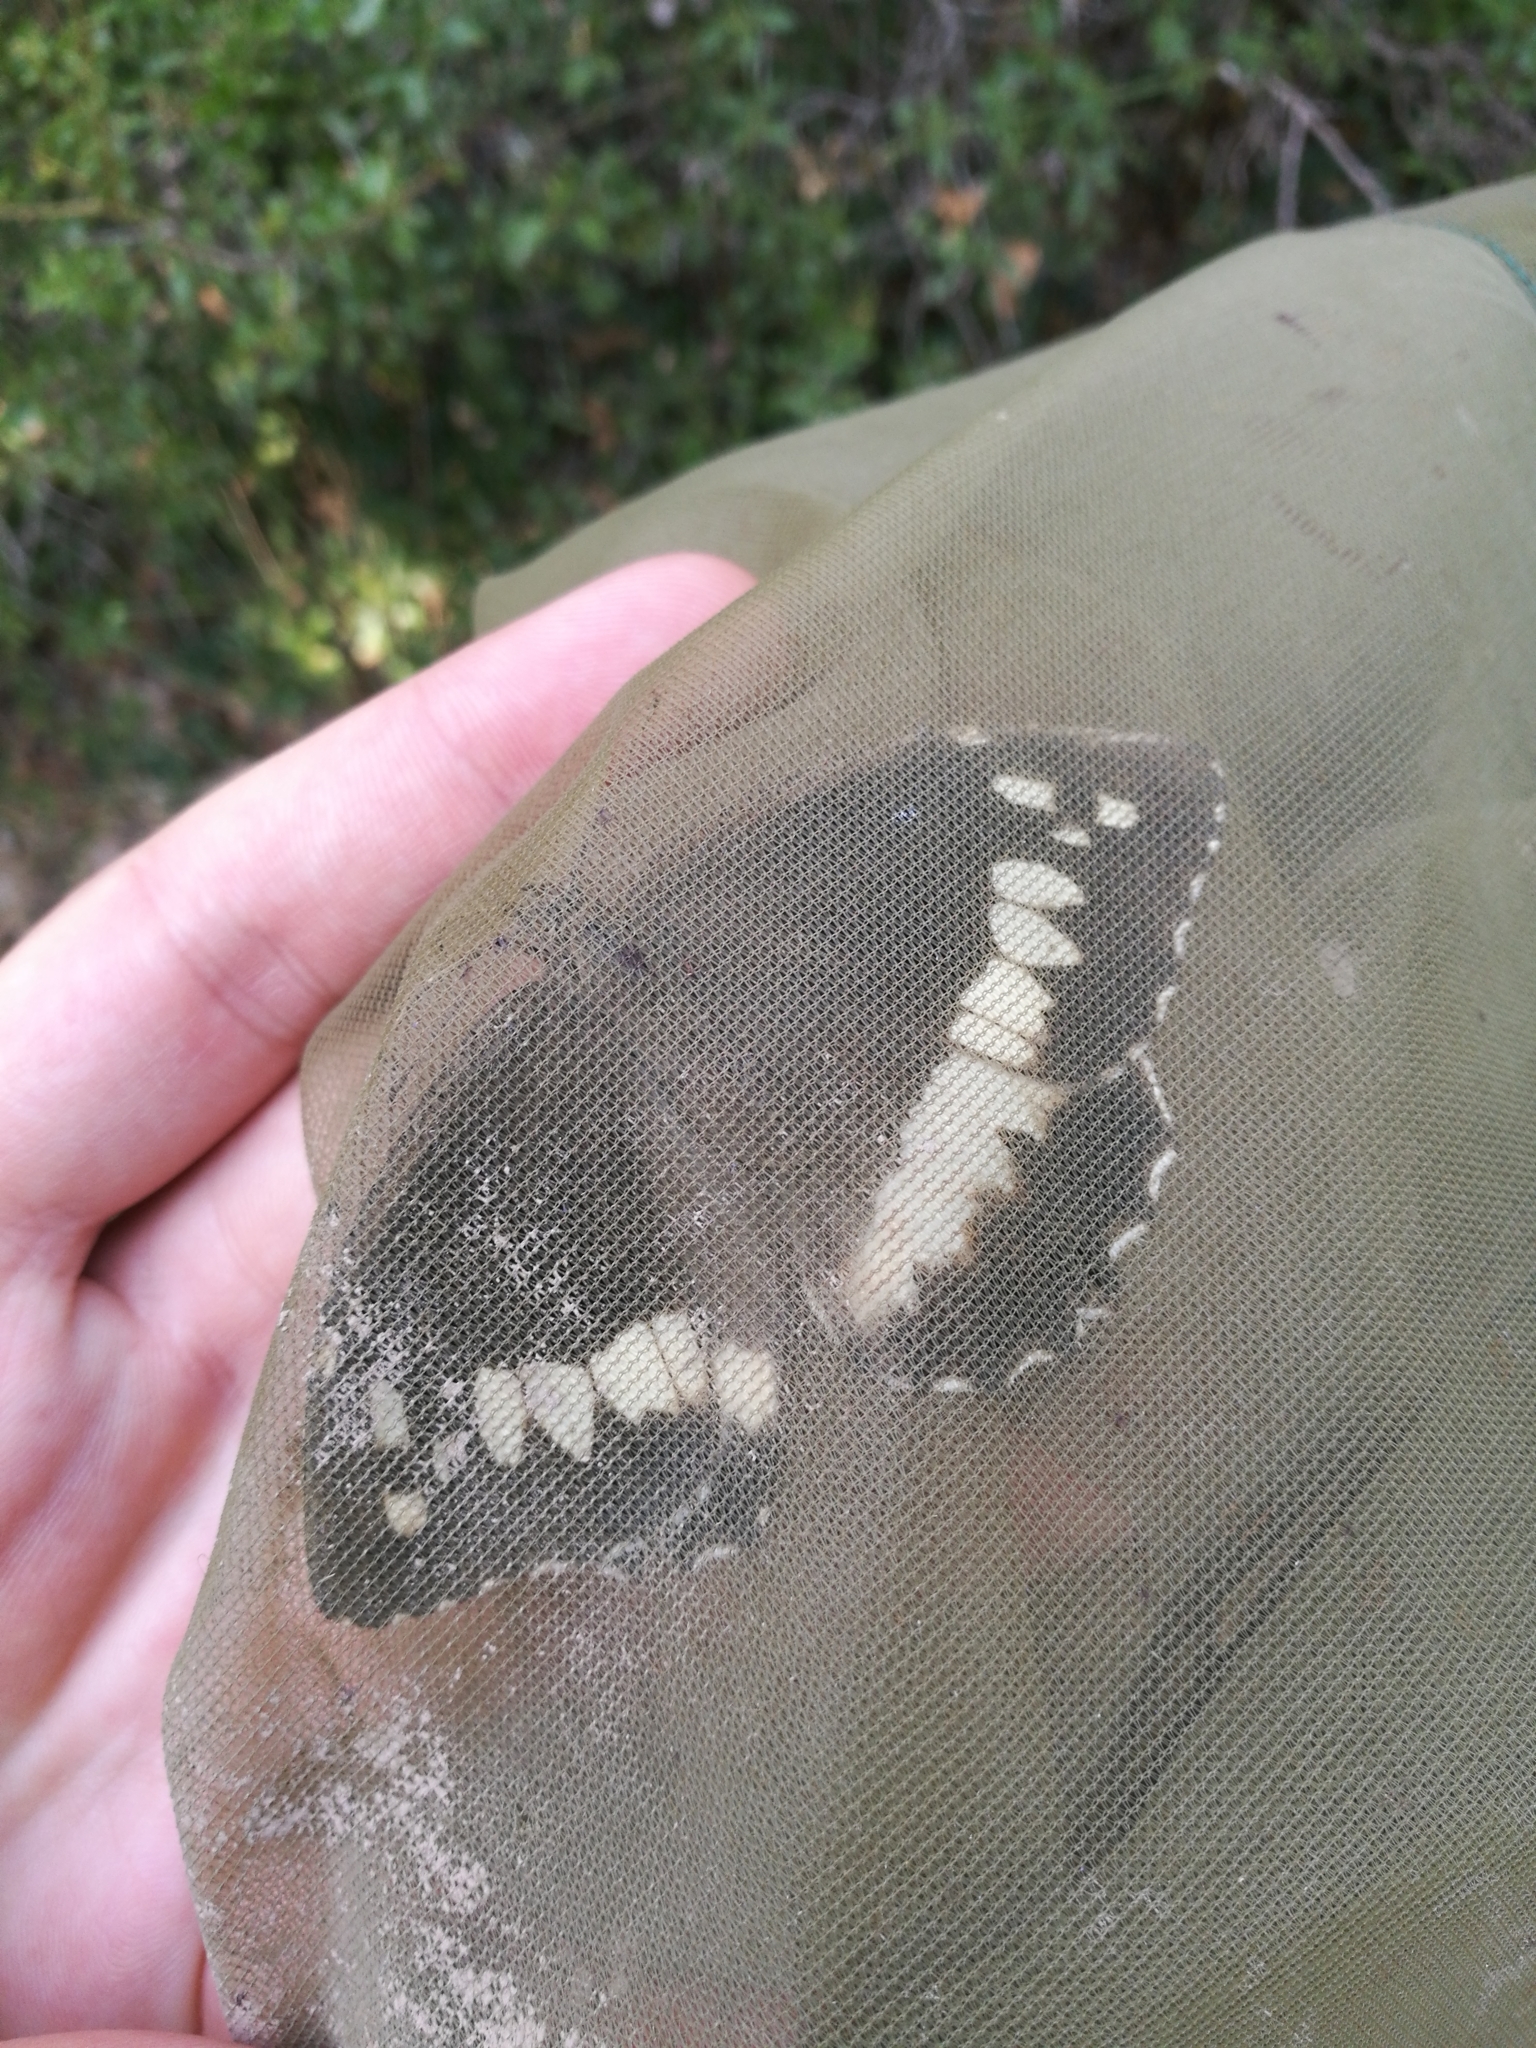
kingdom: Animalia
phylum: Arthropoda
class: Insecta
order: Lepidoptera
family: Lycaenidae
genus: Loweia
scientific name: Loweia tityrus
